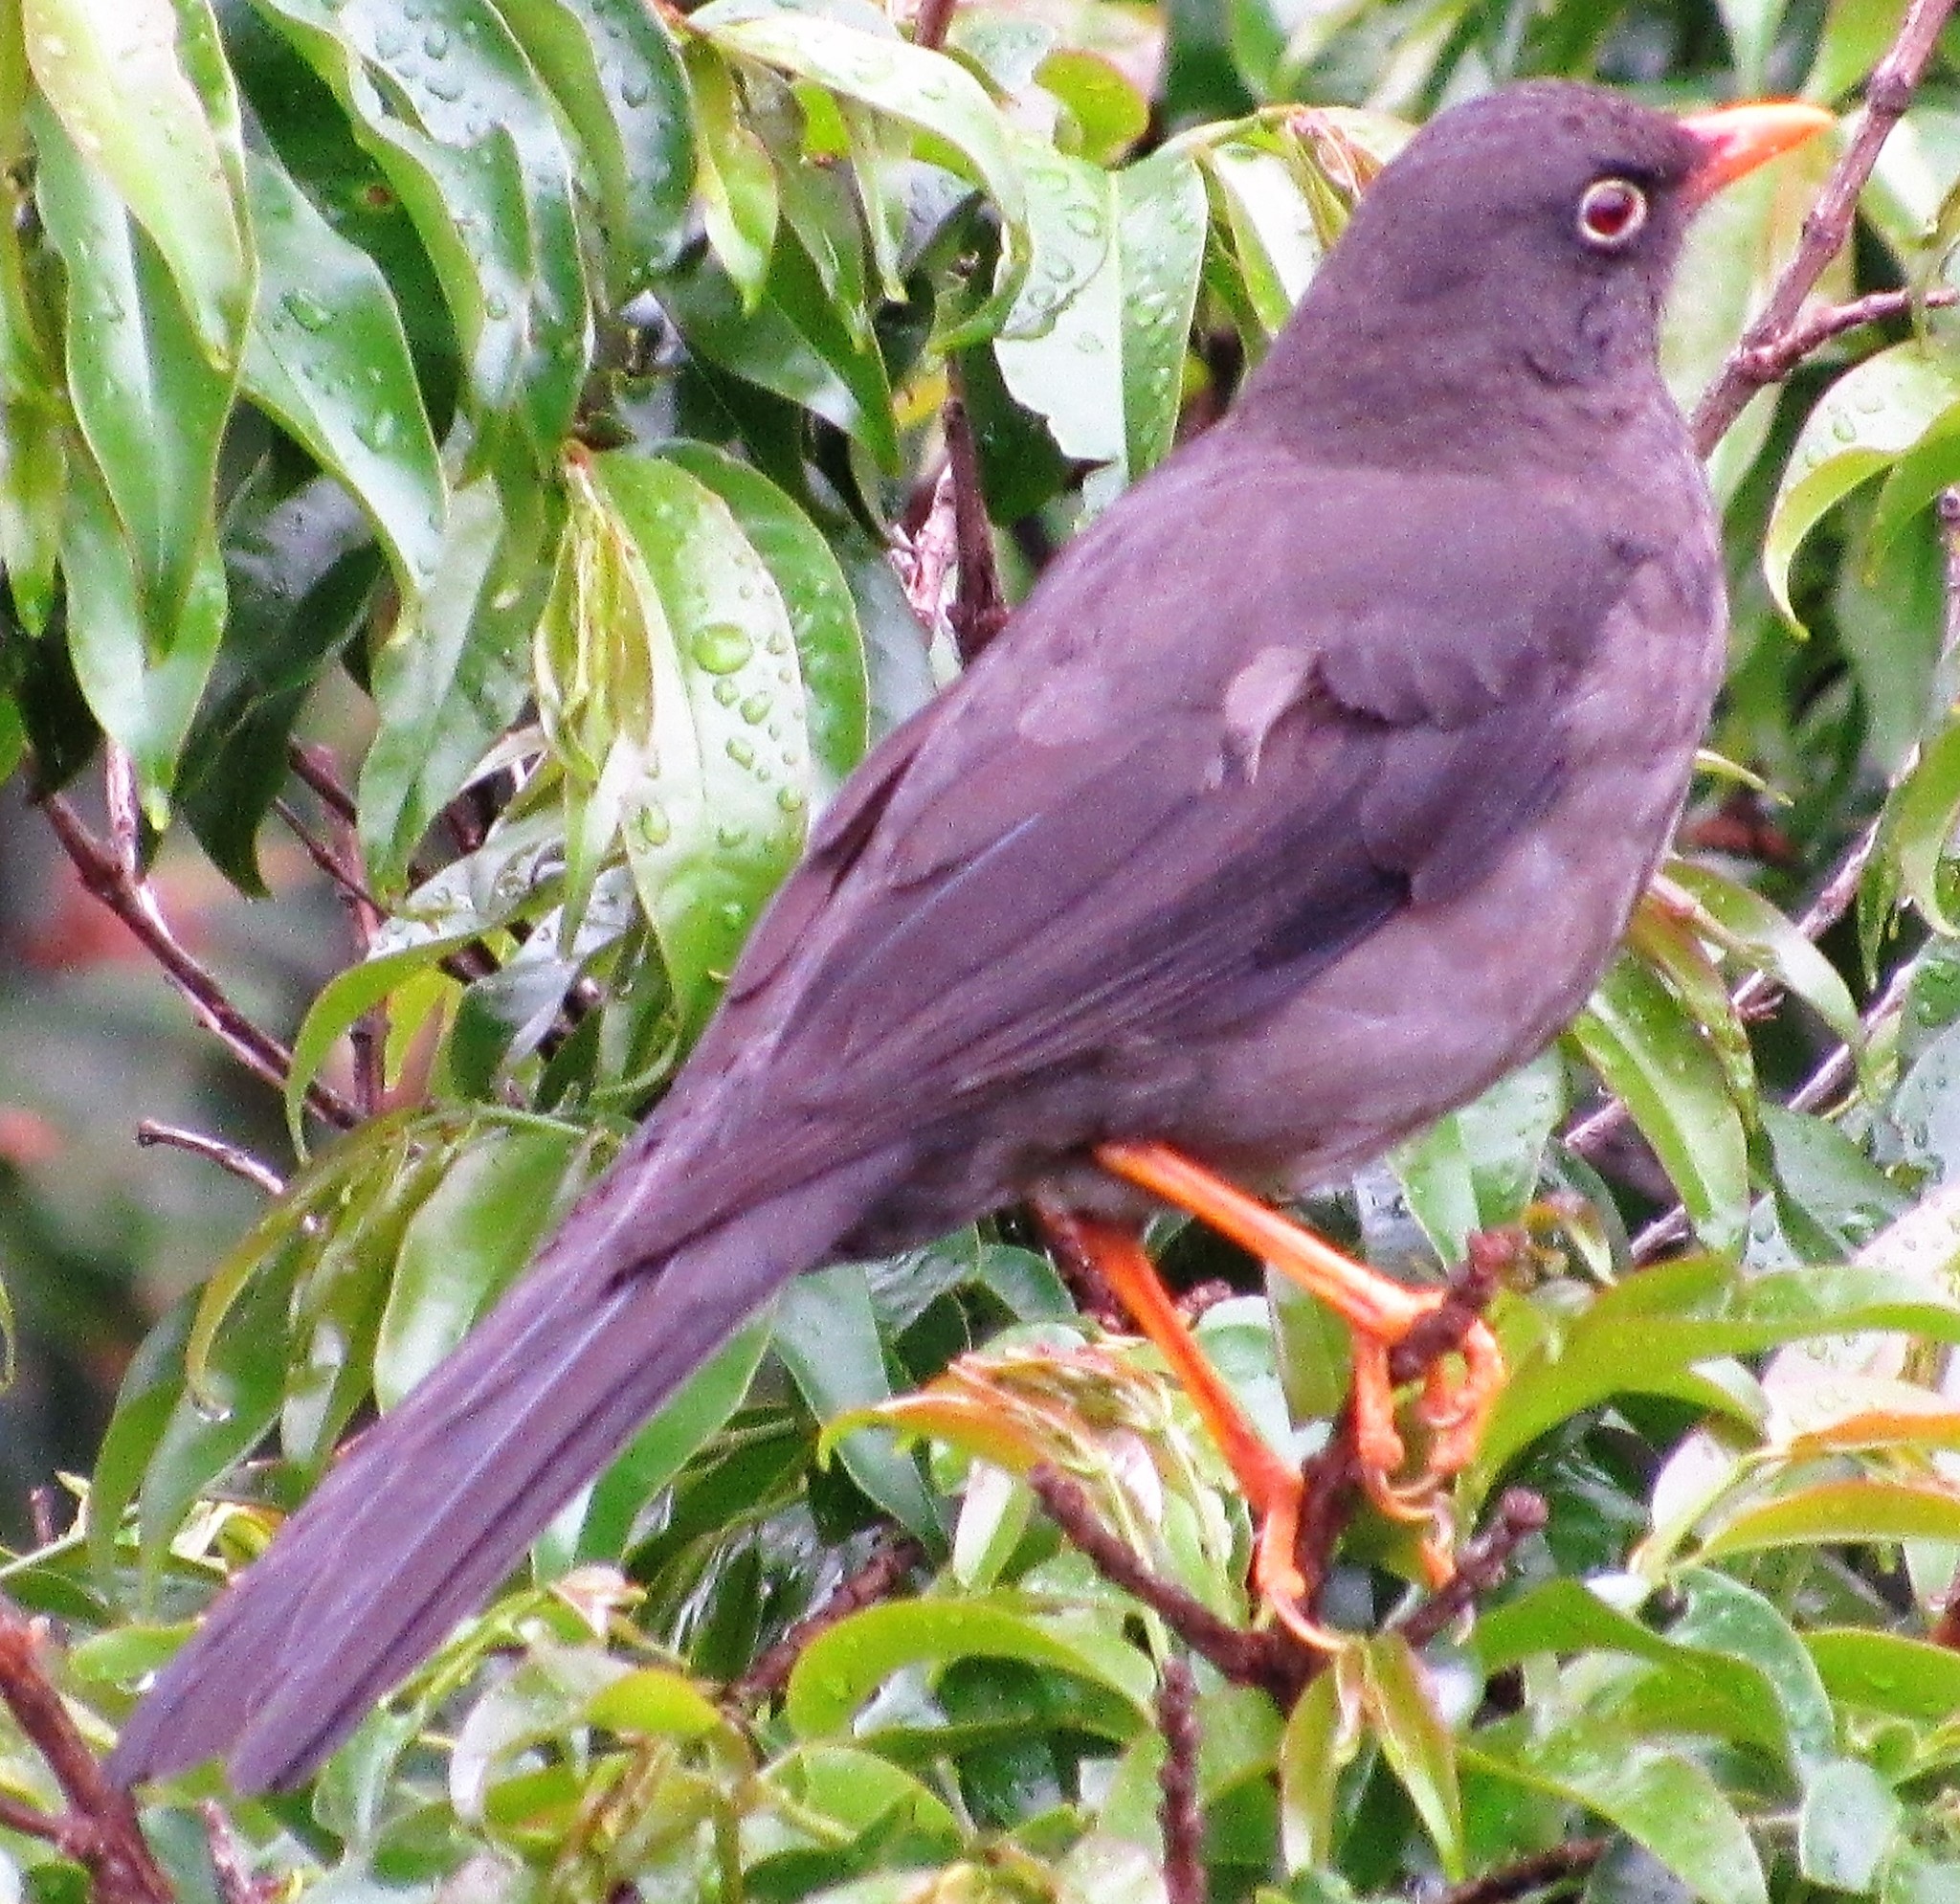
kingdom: Animalia
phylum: Chordata
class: Aves
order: Passeriformes
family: Turdidae
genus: Turdus
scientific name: Turdus fuscater
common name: Great thrush
